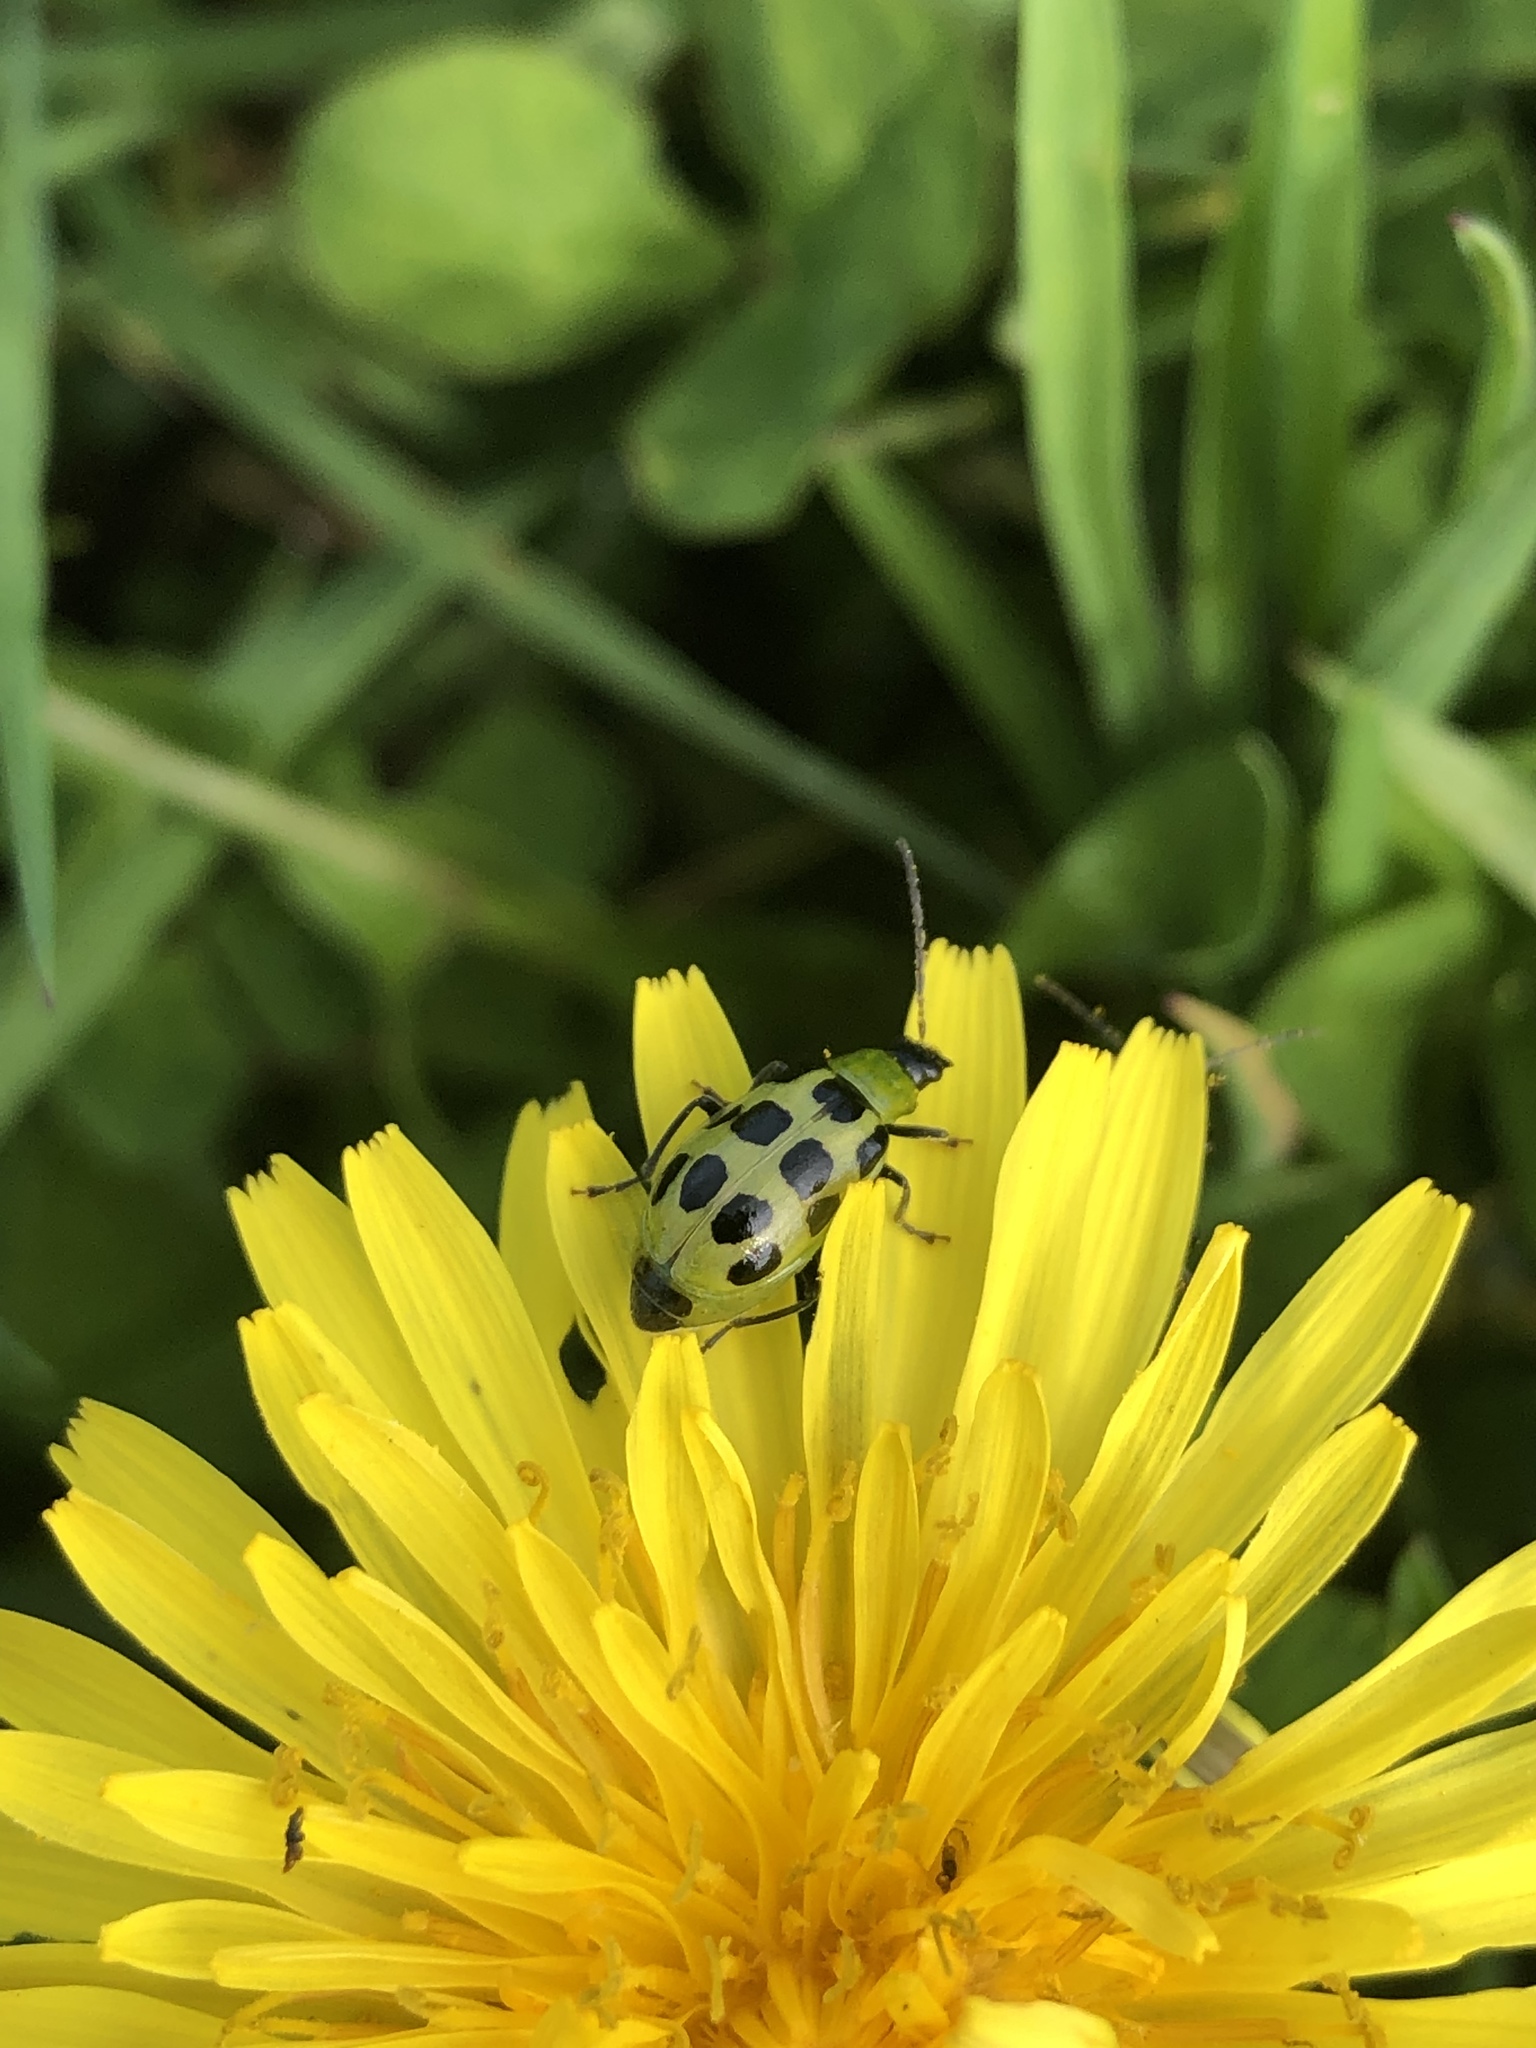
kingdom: Animalia
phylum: Arthropoda
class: Insecta
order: Coleoptera
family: Chrysomelidae
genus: Diabrotica
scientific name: Diabrotica undecimpunctata
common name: Spotted cucumber beetle
